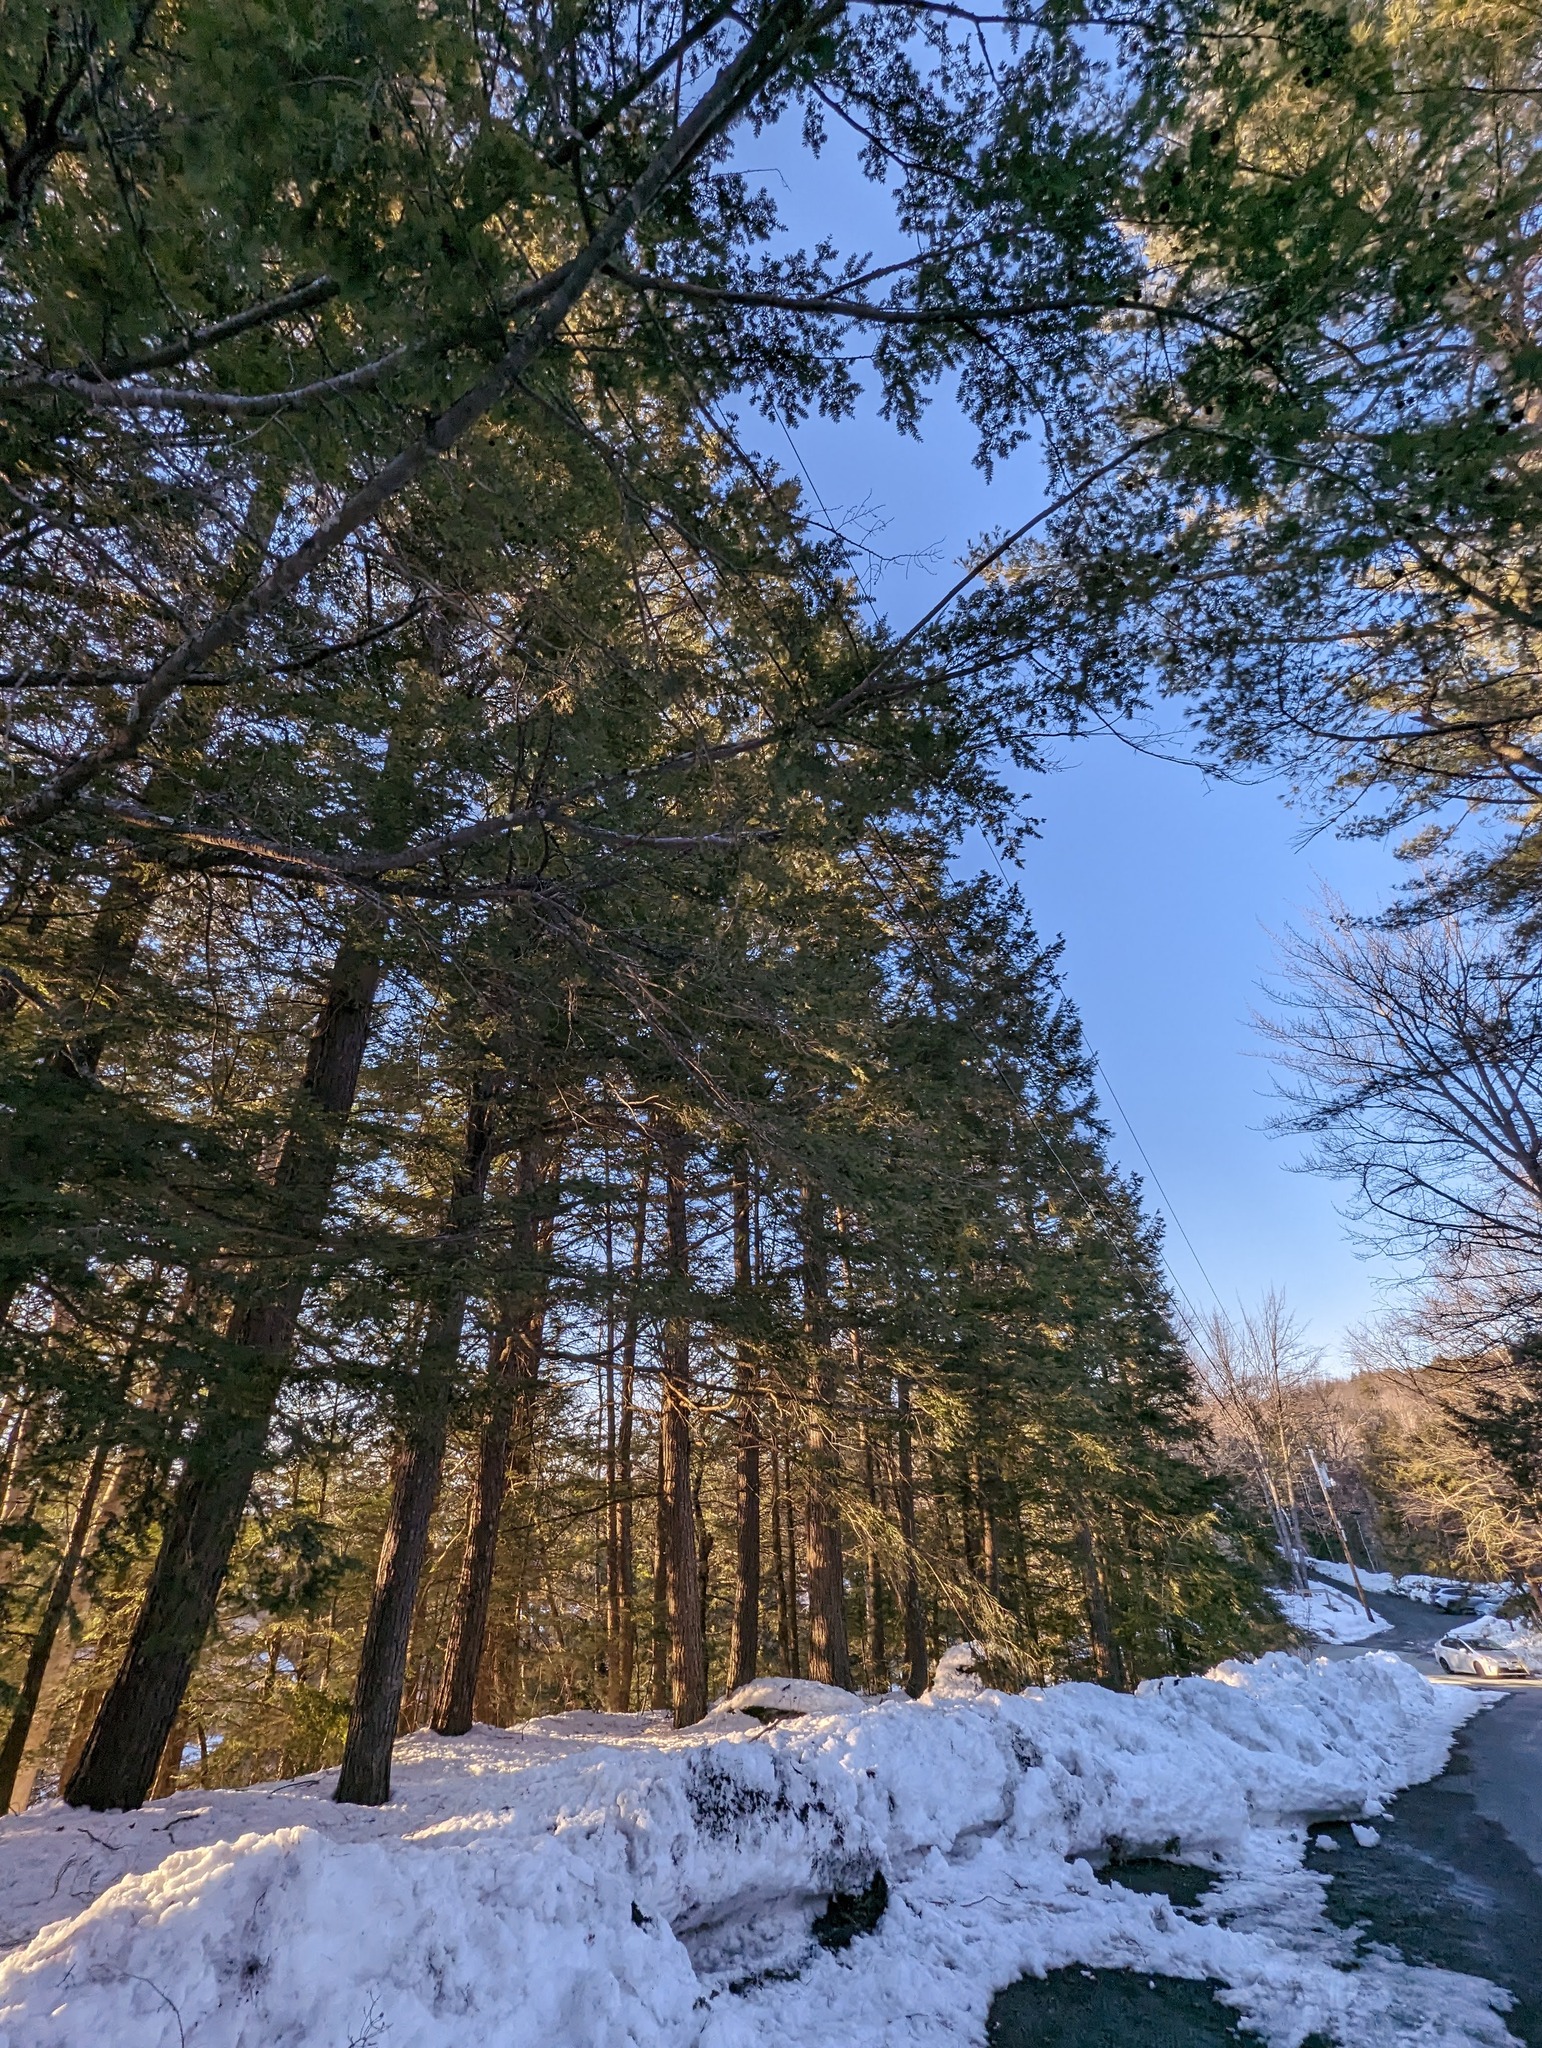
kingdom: Plantae
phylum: Tracheophyta
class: Pinopsida
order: Pinales
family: Pinaceae
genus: Tsuga
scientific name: Tsuga canadensis
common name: Eastern hemlock
